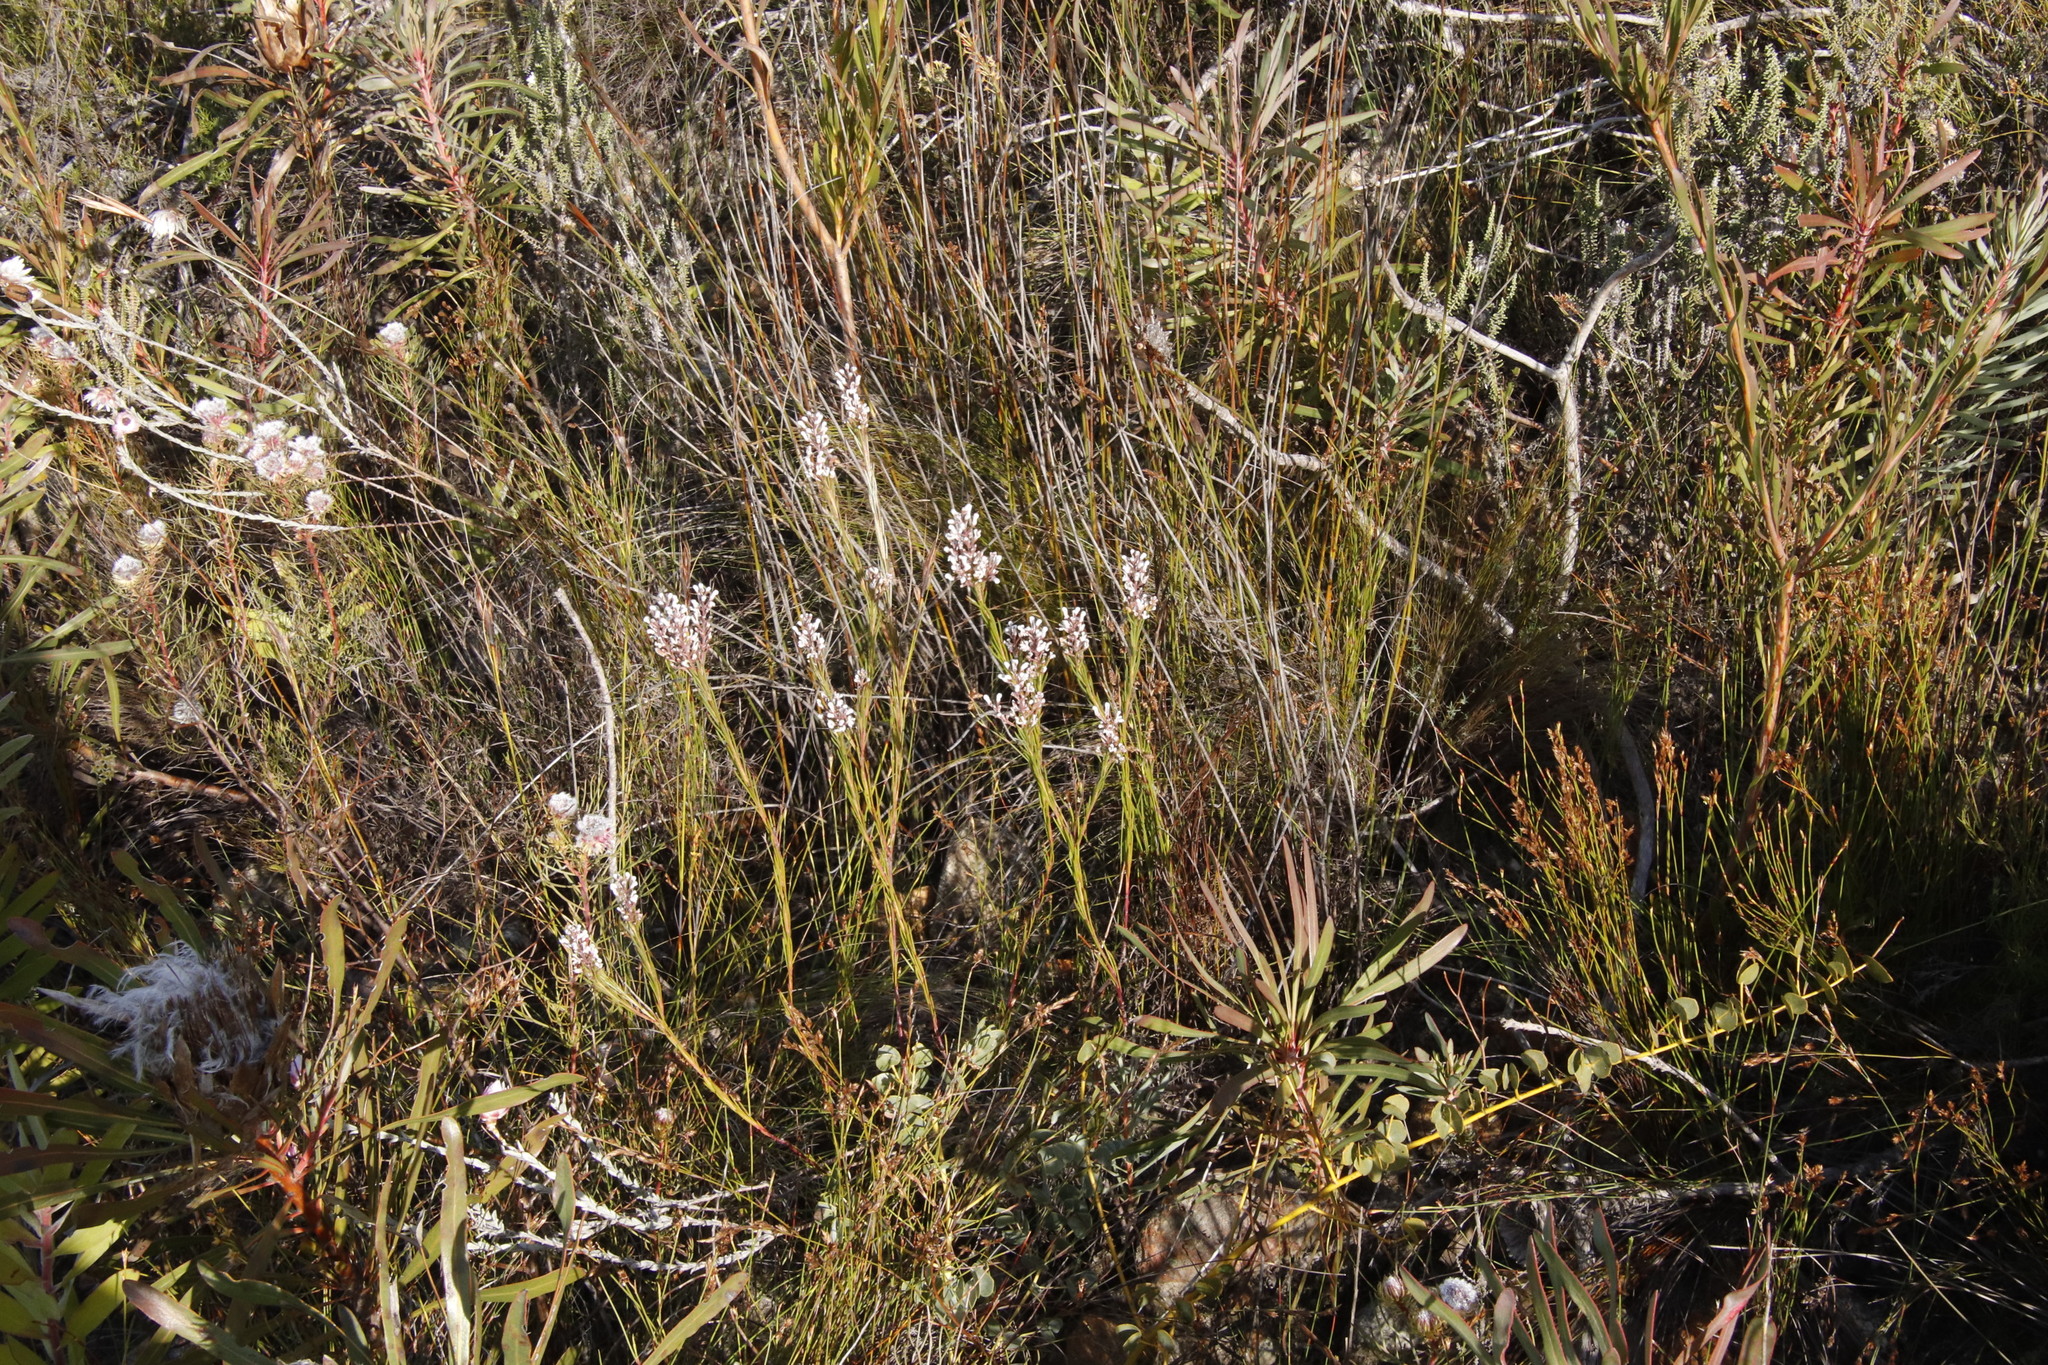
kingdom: Plantae
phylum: Tracheophyta
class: Magnoliopsida
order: Proteales
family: Proteaceae
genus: Spatalla
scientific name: Spatalla racemosa
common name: Lax-stalked spoon
